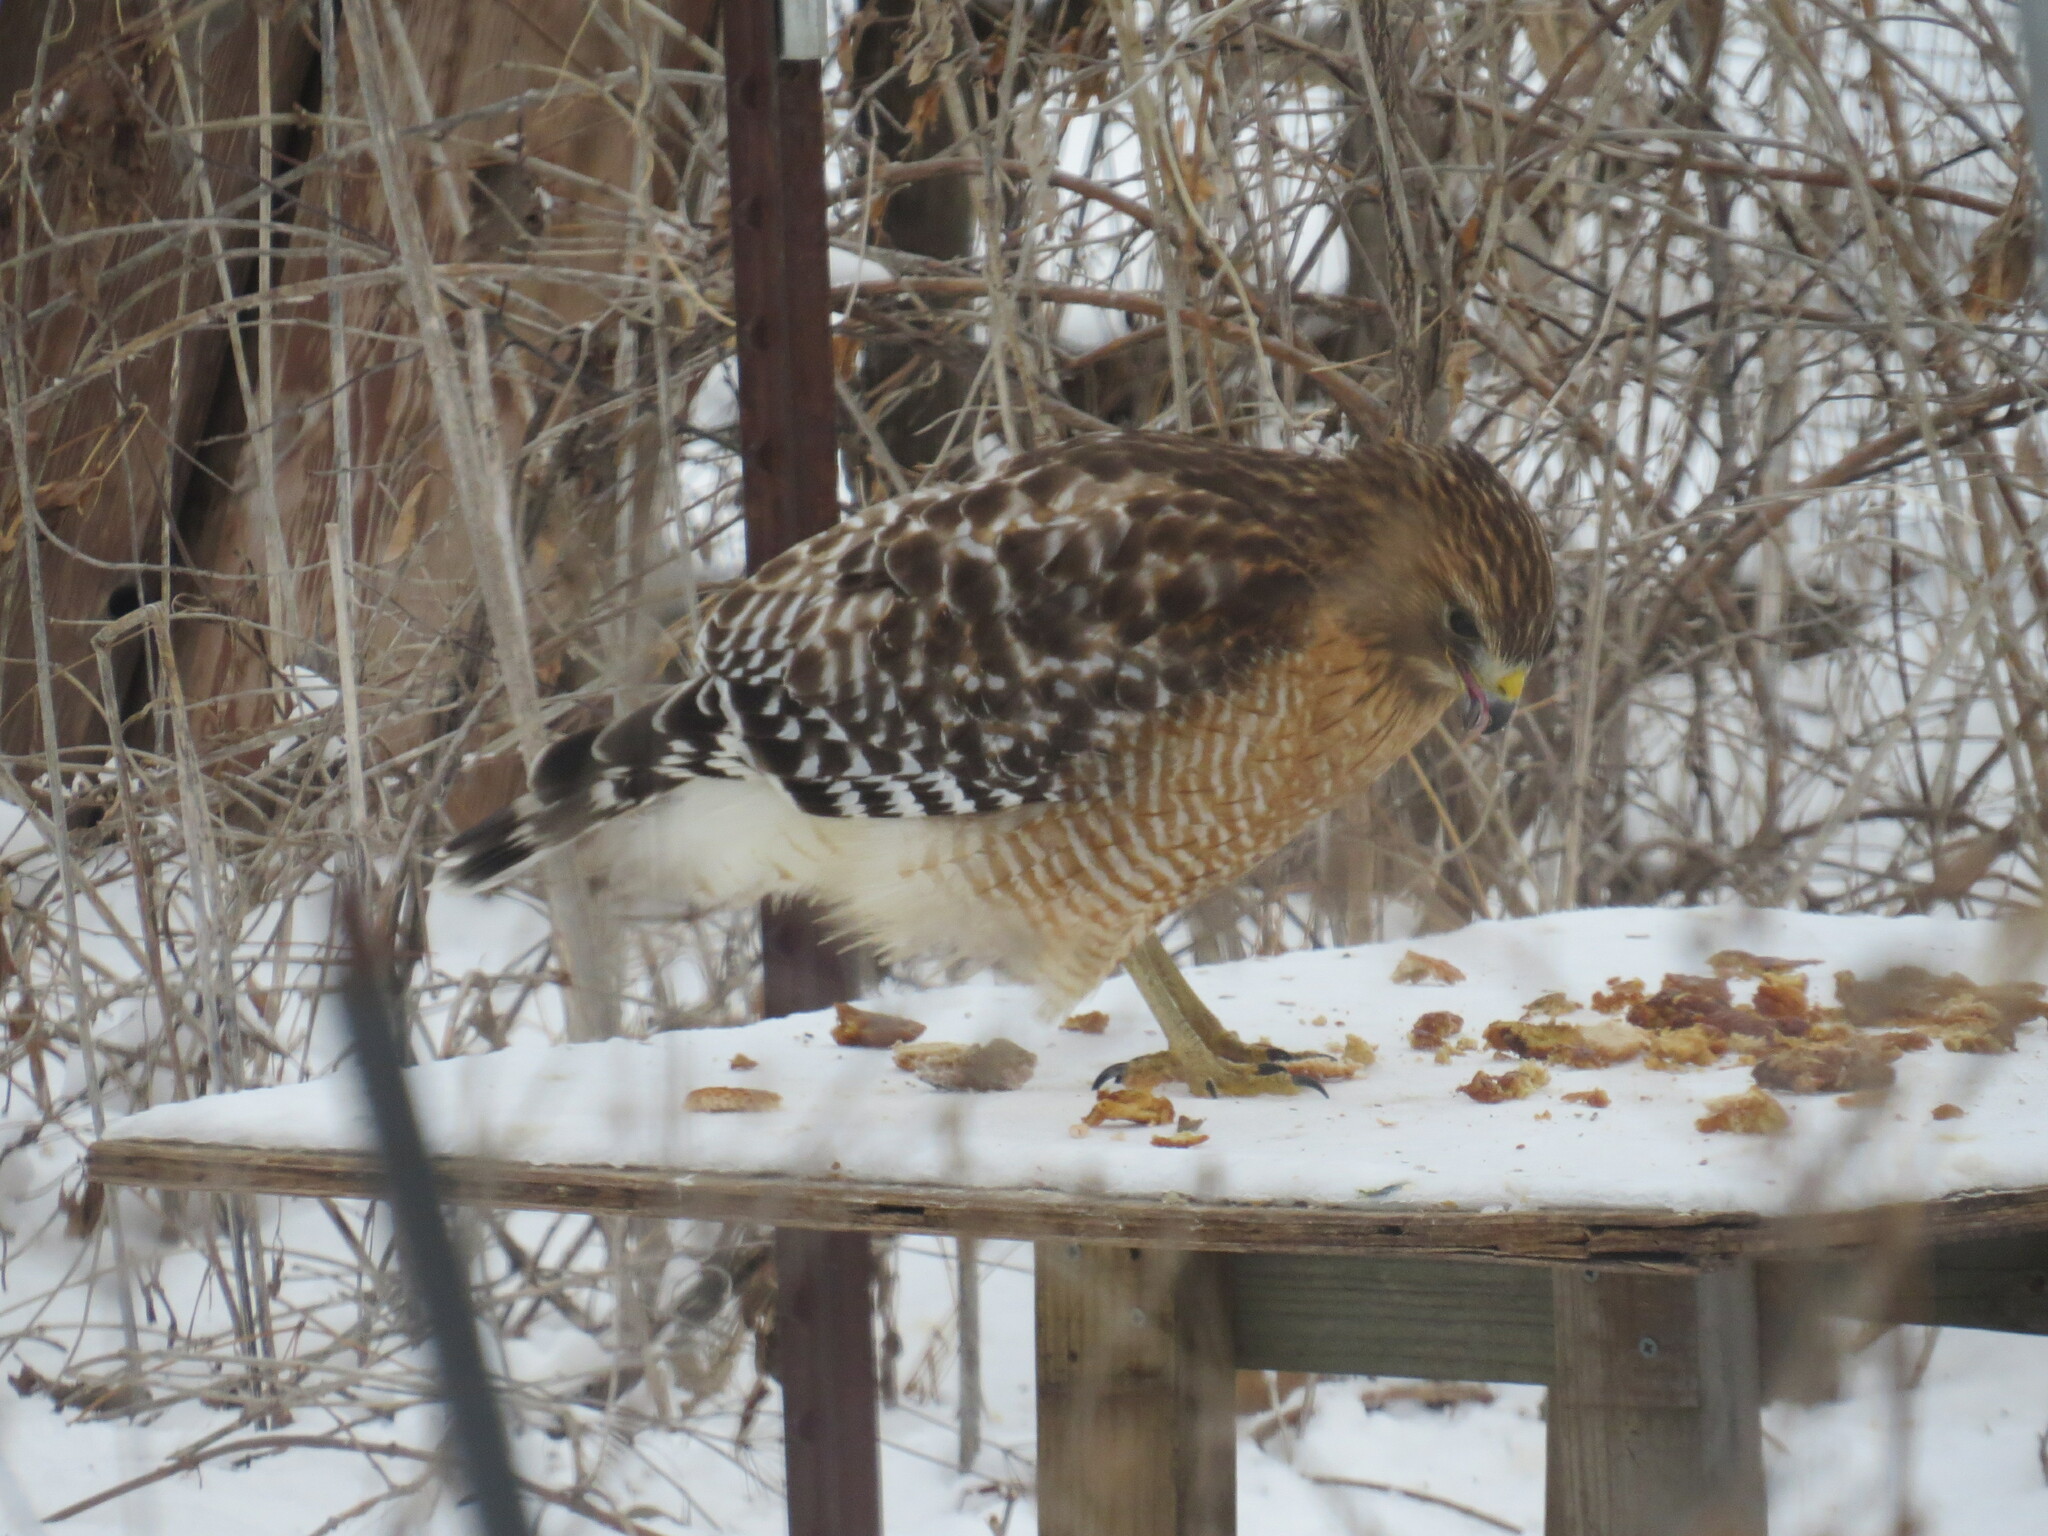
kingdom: Animalia
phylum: Chordata
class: Aves
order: Accipitriformes
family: Accipitridae
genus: Buteo
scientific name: Buteo lineatus
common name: Red-shouldered hawk
